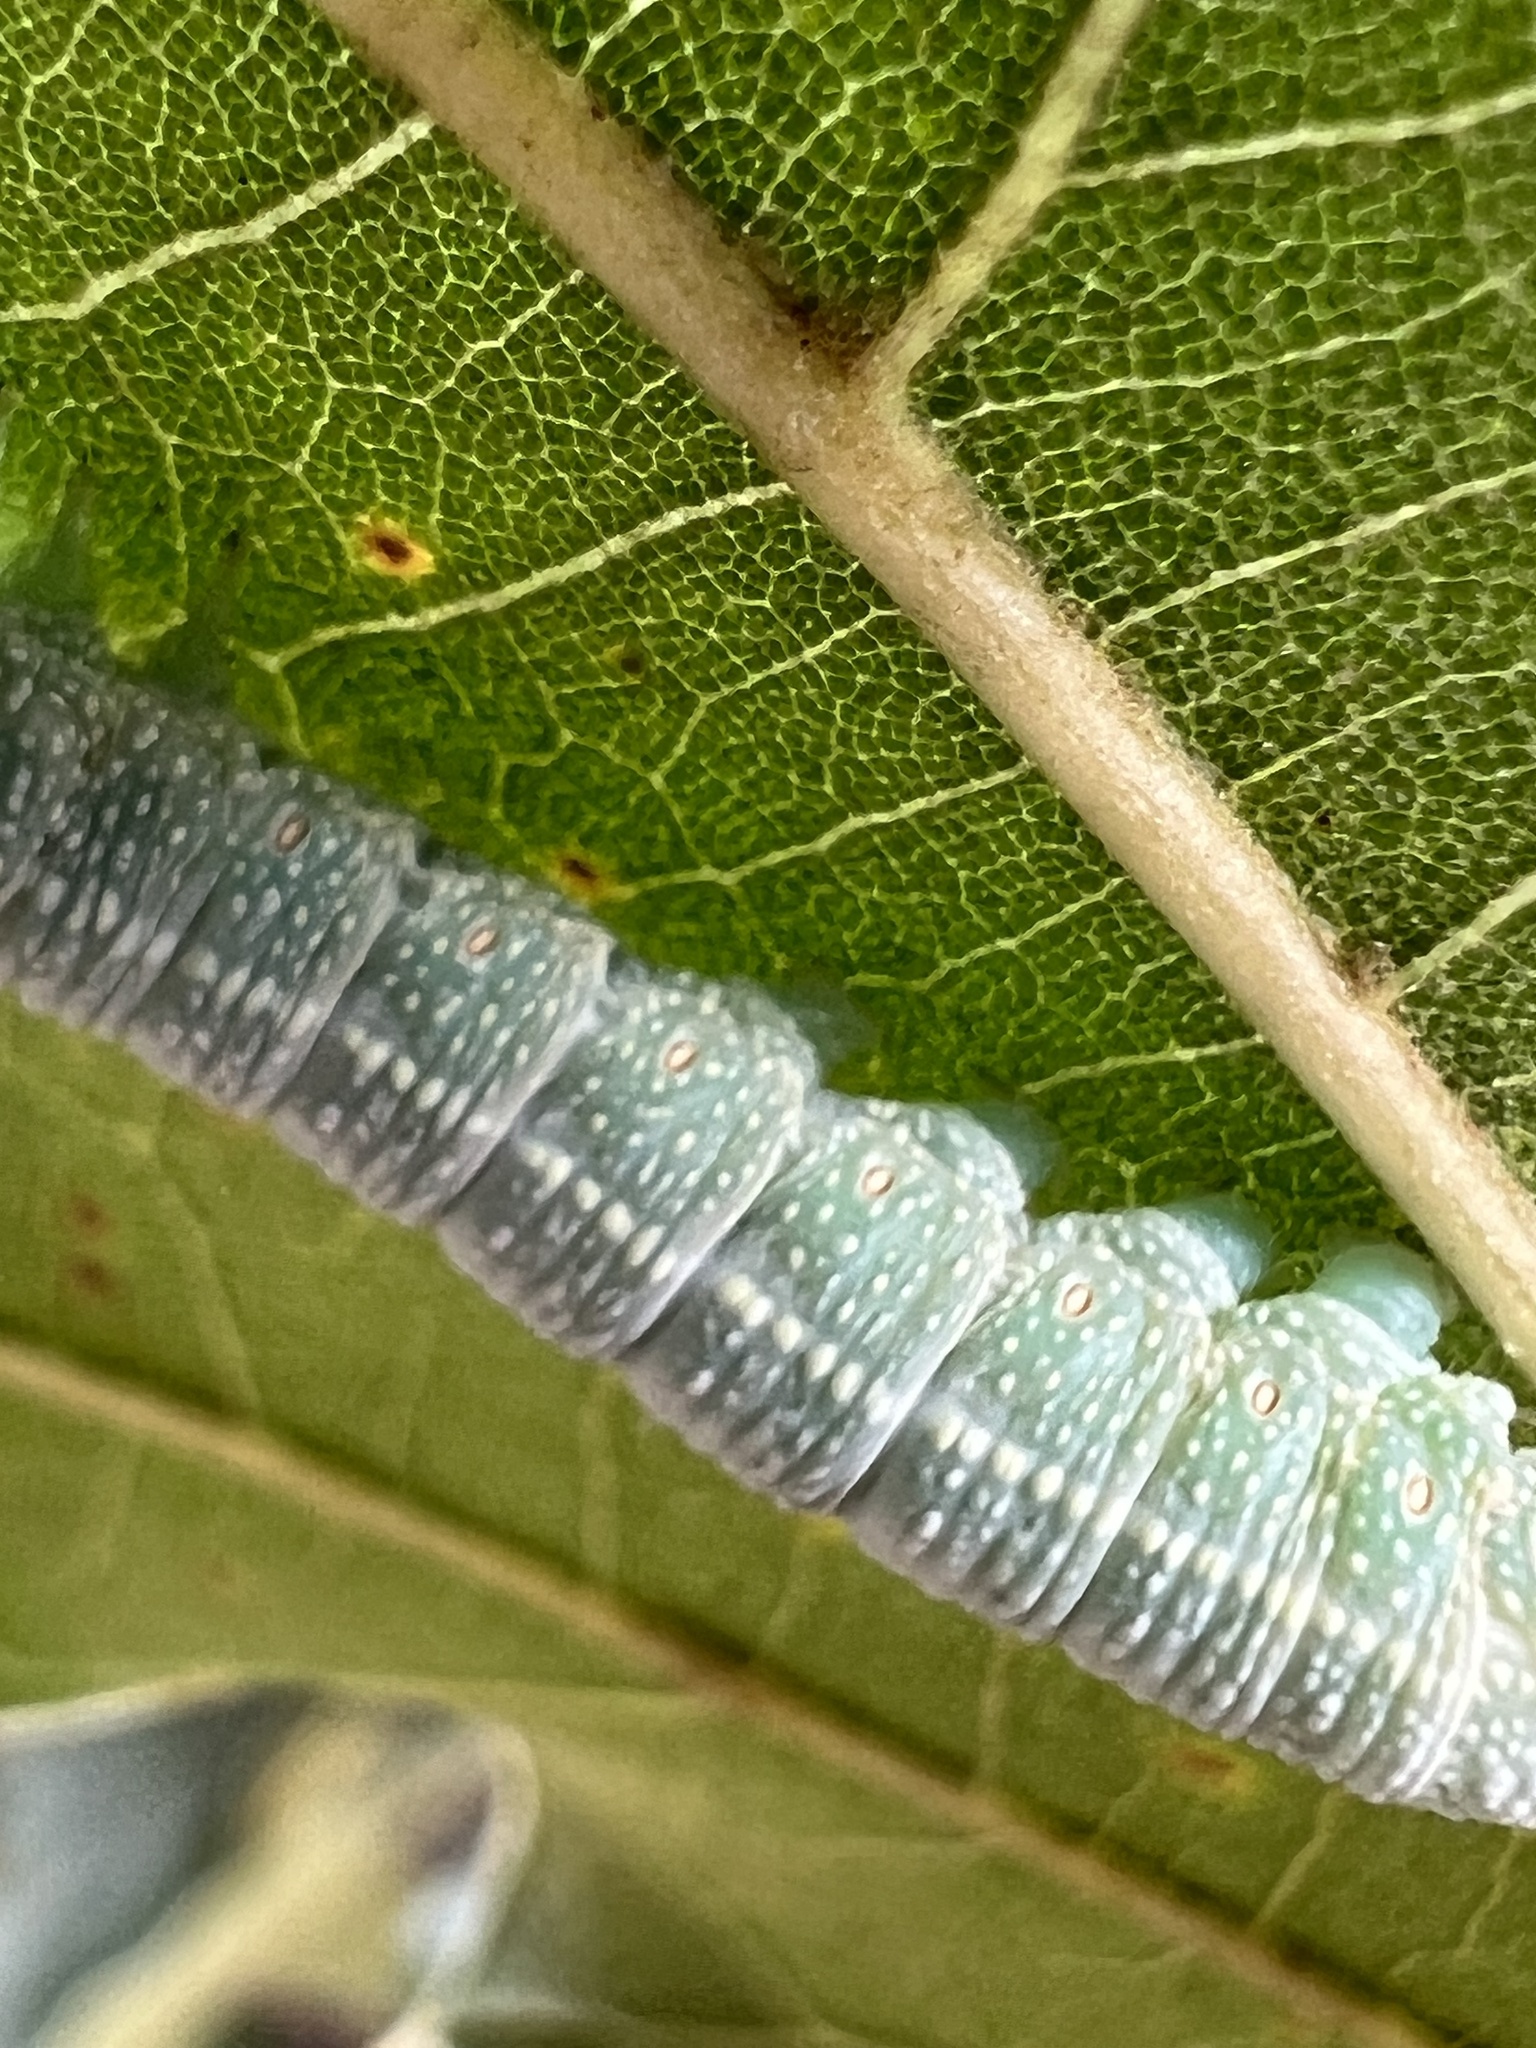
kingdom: Animalia
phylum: Arthropoda
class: Insecta
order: Lepidoptera
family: Notodontidae
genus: Nadata
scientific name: Nadata gibbosa
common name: White-dotted prominent
